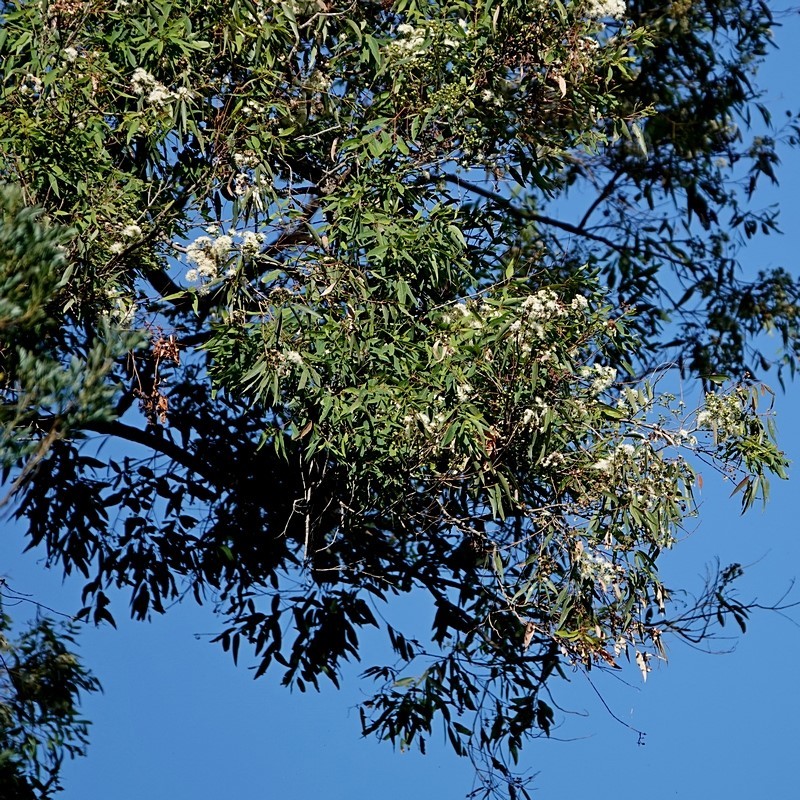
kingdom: Plantae
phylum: Tracheophyta
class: Magnoliopsida
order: Myrtales
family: Myrtaceae
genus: Angophora
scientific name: Angophora floribunda
